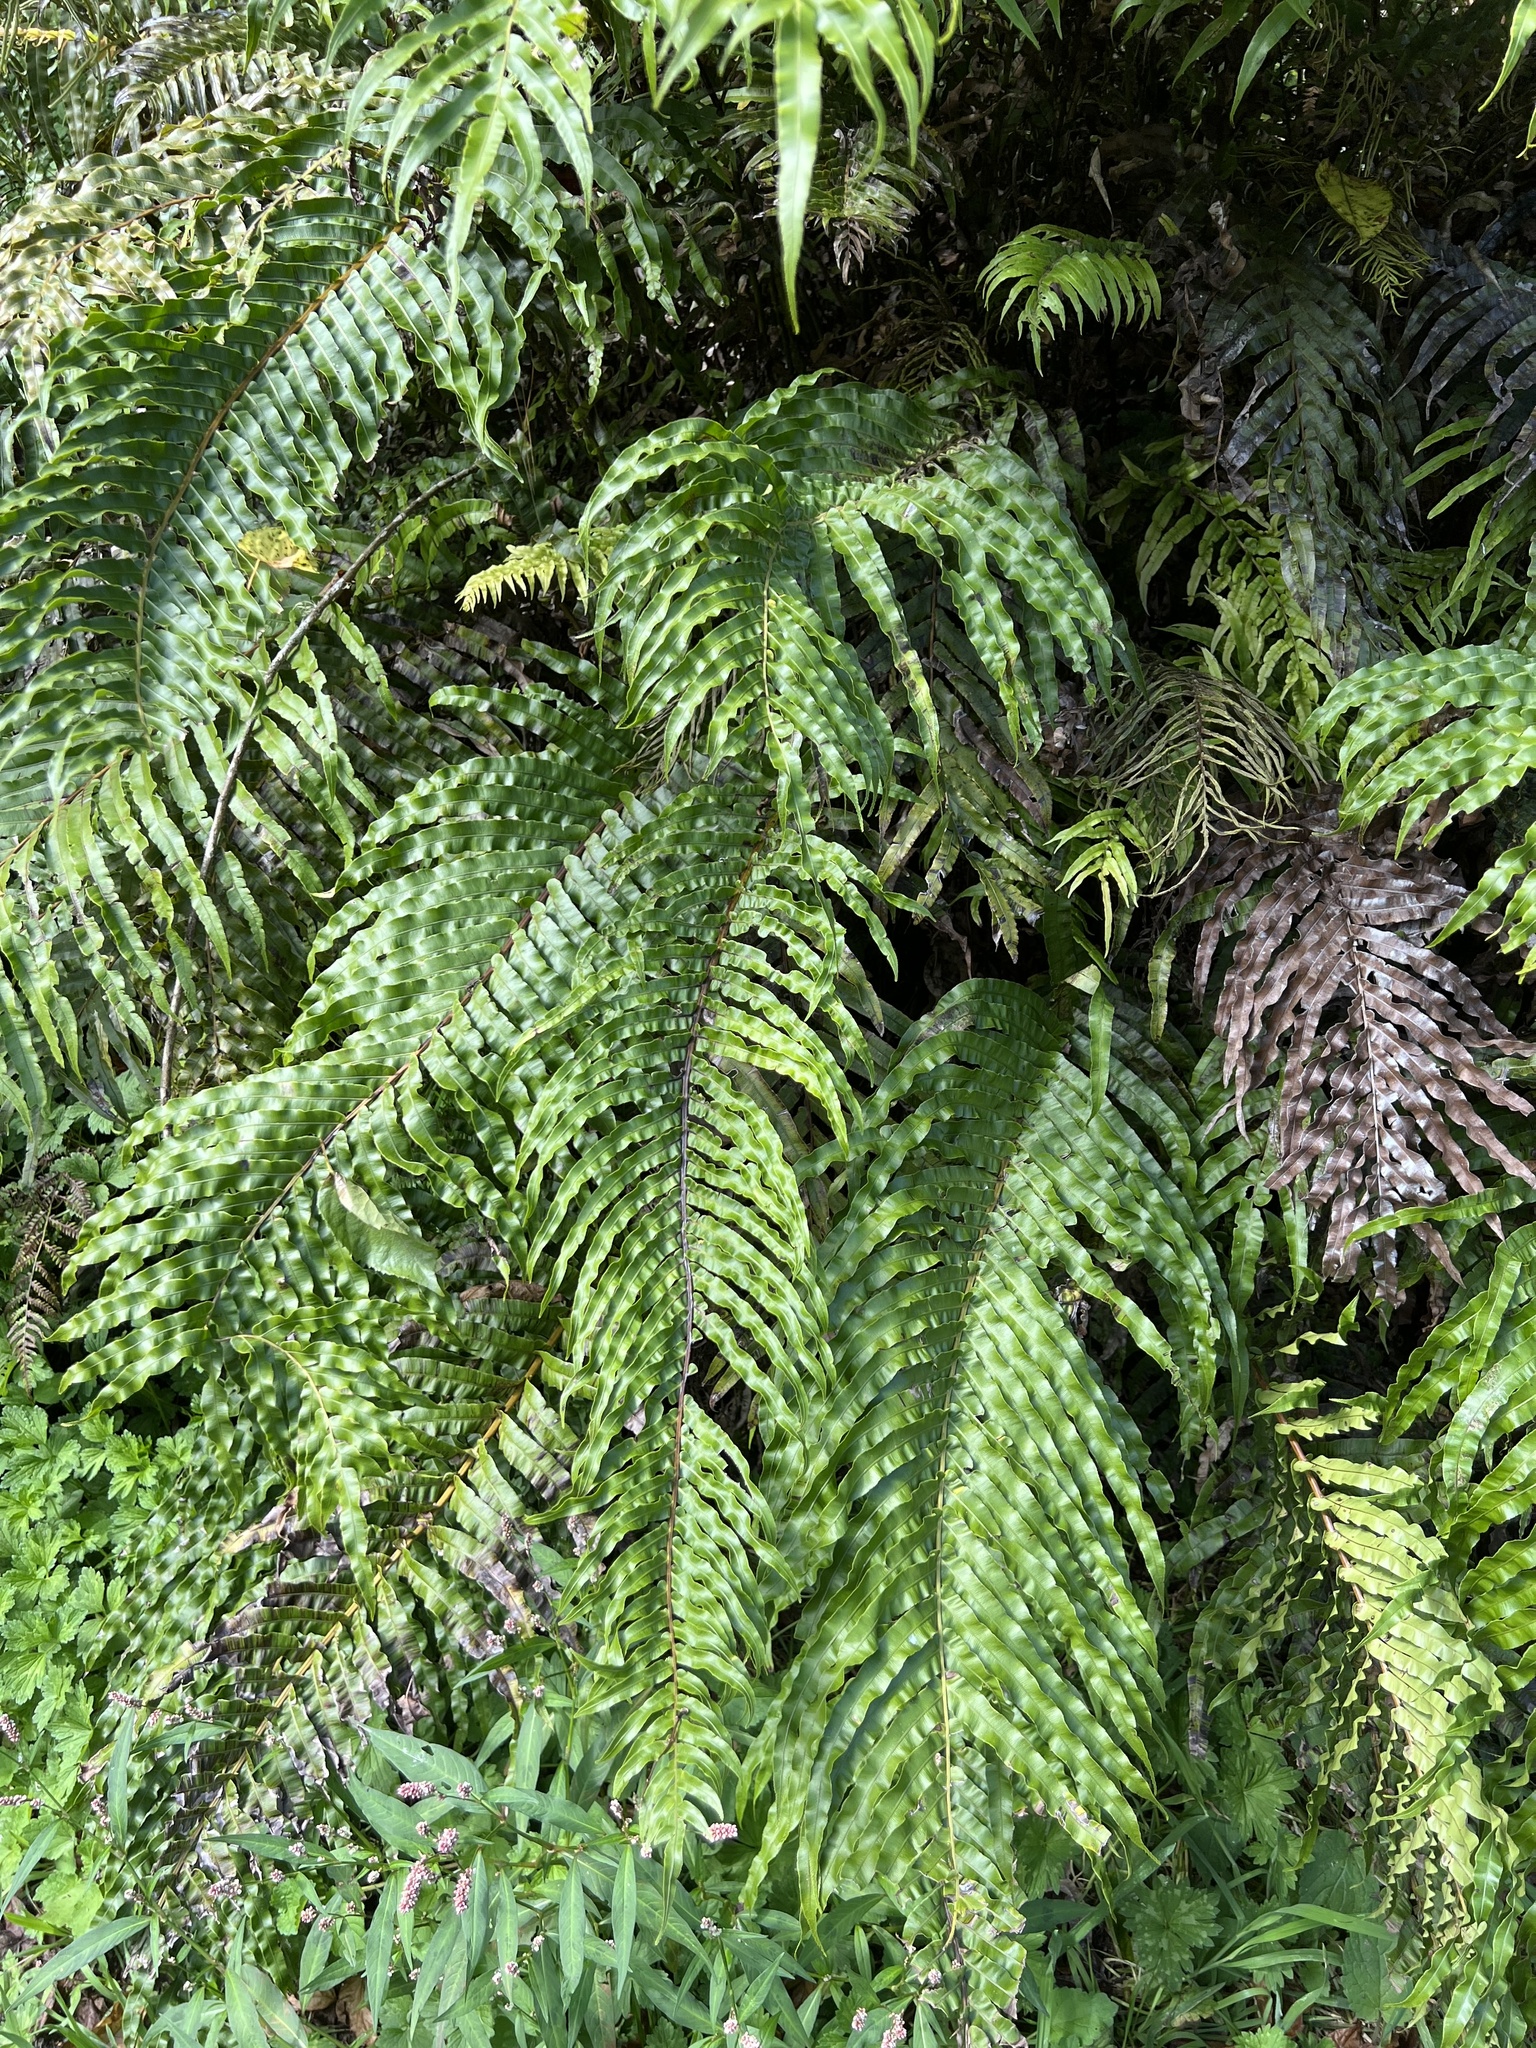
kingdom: Plantae
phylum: Tracheophyta
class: Polypodiopsida
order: Polypodiales
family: Blechnaceae
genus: Parablechnum
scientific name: Parablechnum novae-zelandiae
